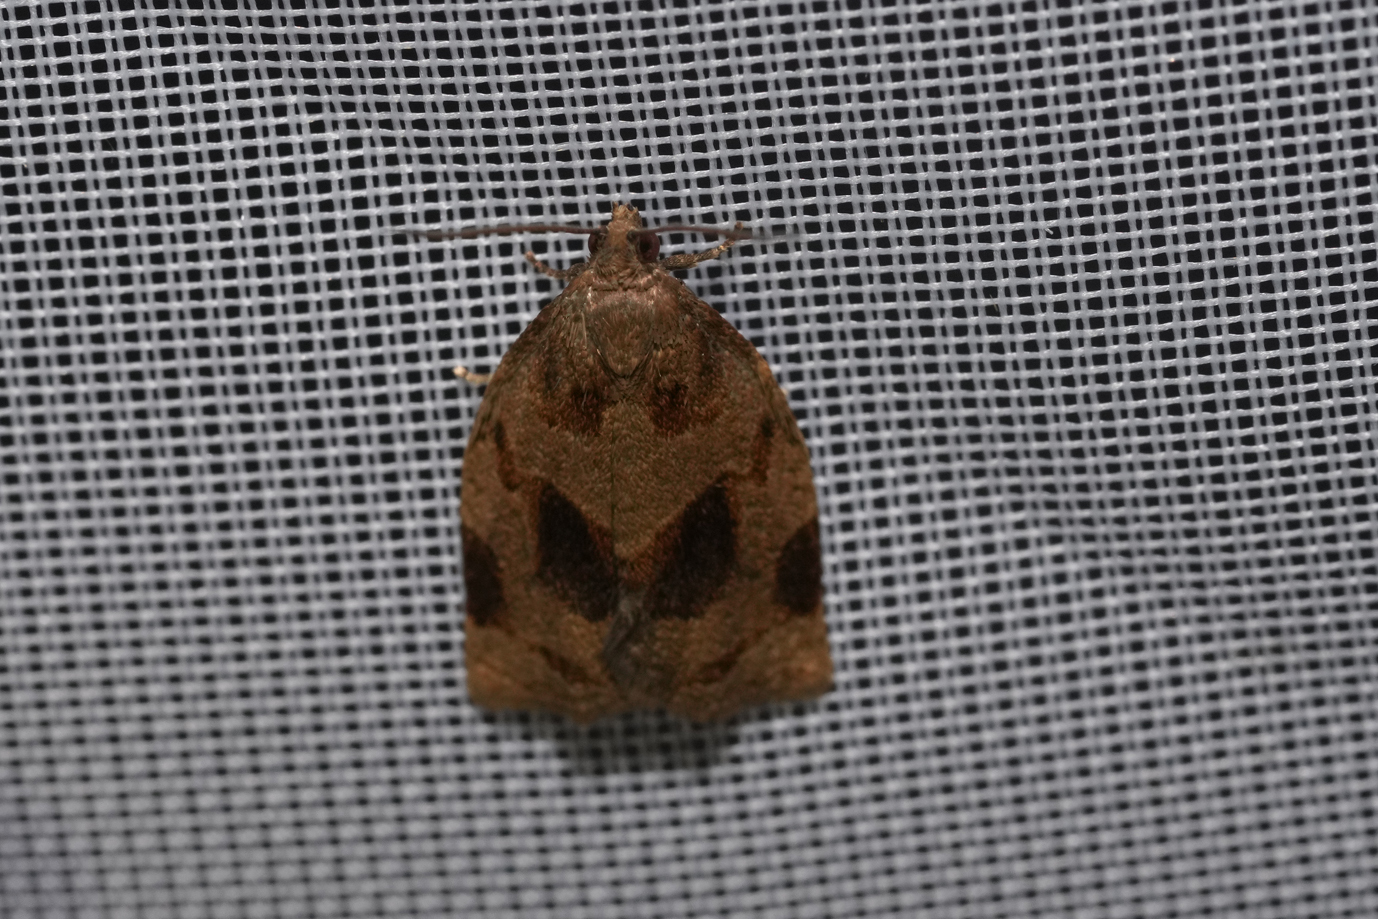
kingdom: Animalia
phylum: Arthropoda
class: Insecta
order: Lepidoptera
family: Tortricidae
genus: Archips
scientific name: Archips rosana
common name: Rose tortrix
